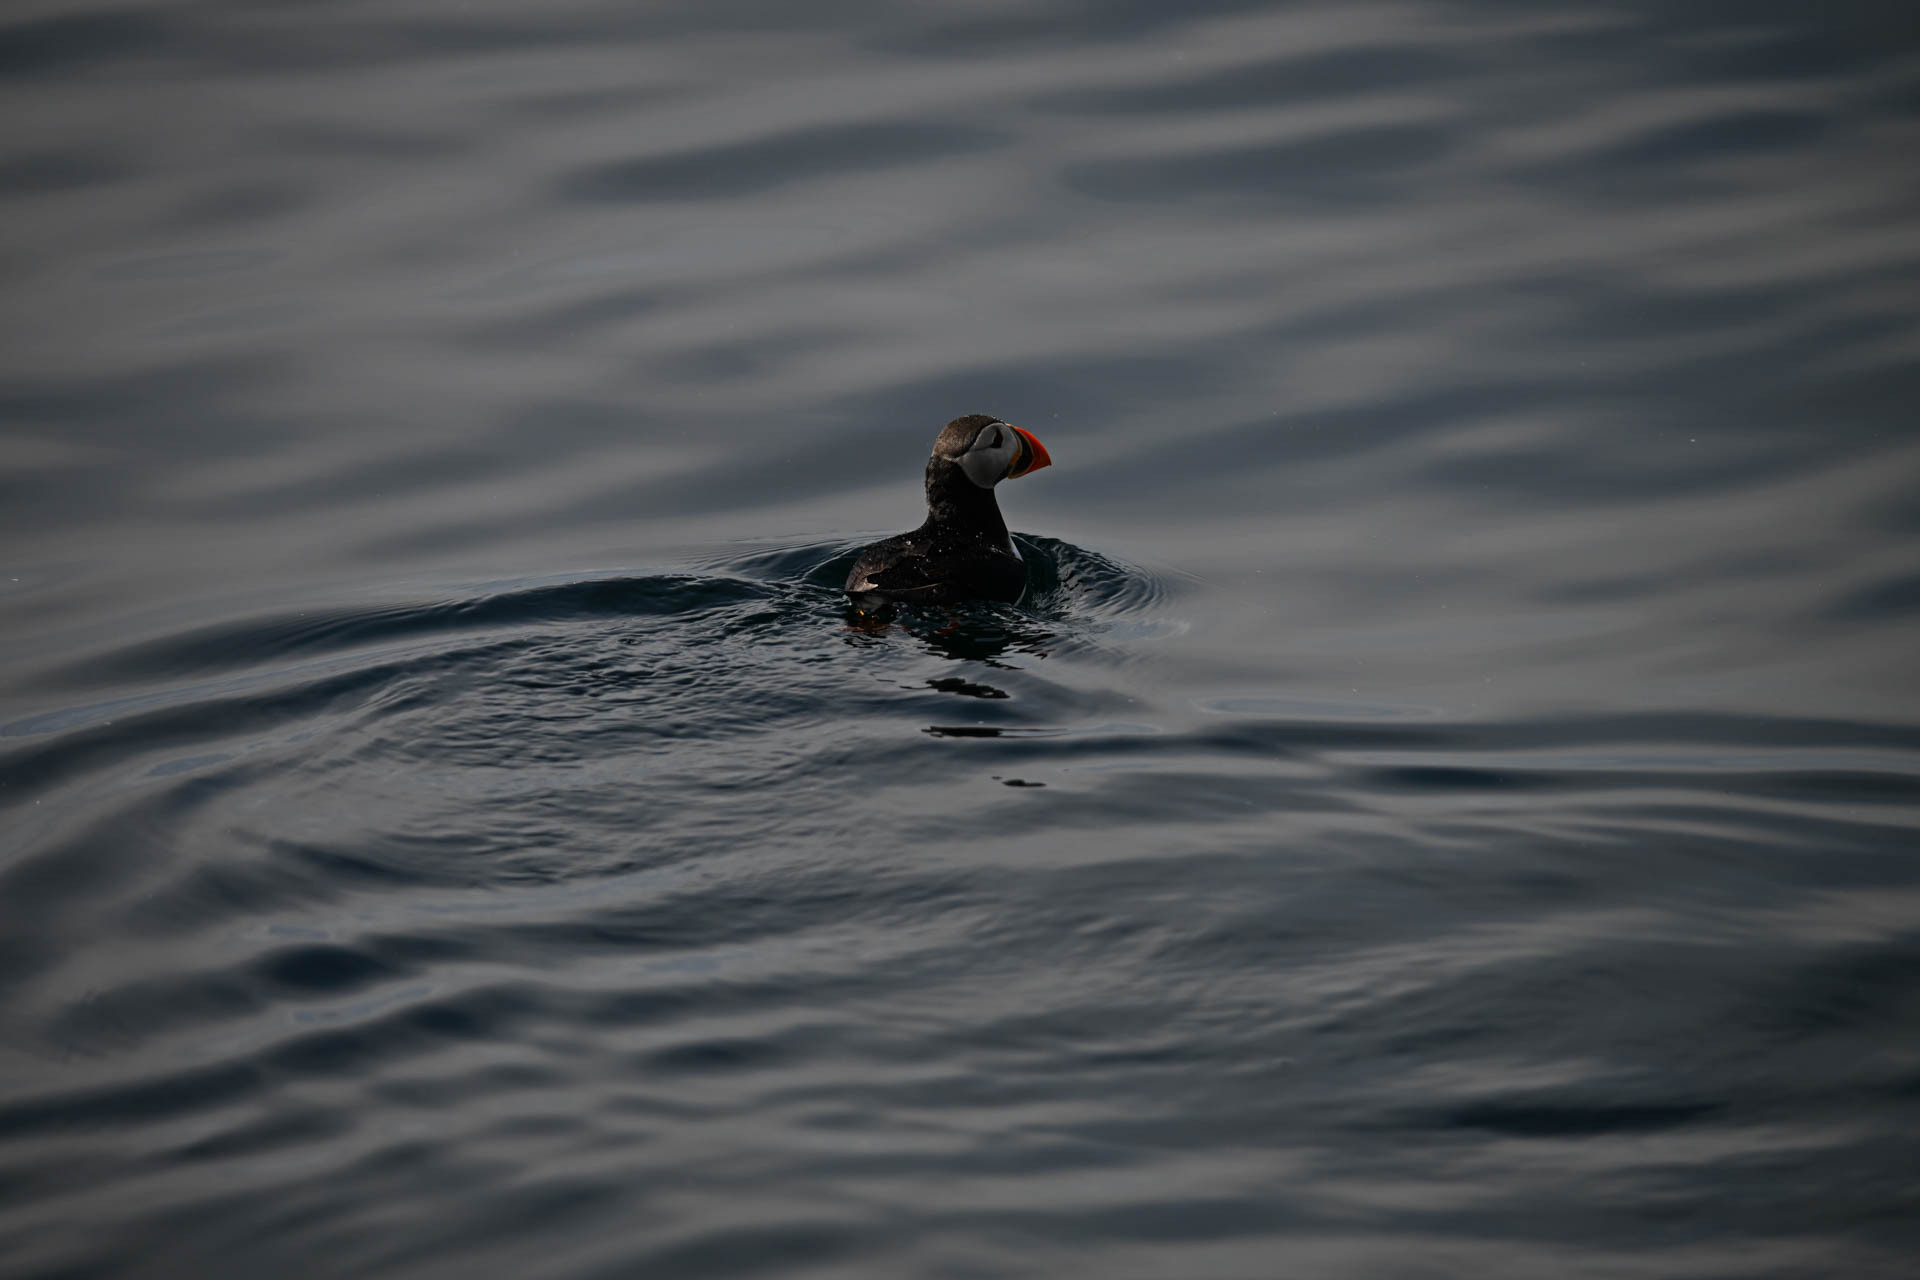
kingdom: Animalia
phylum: Chordata
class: Aves
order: Charadriiformes
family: Alcidae
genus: Fratercula
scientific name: Fratercula arctica
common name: Atlantic puffin
